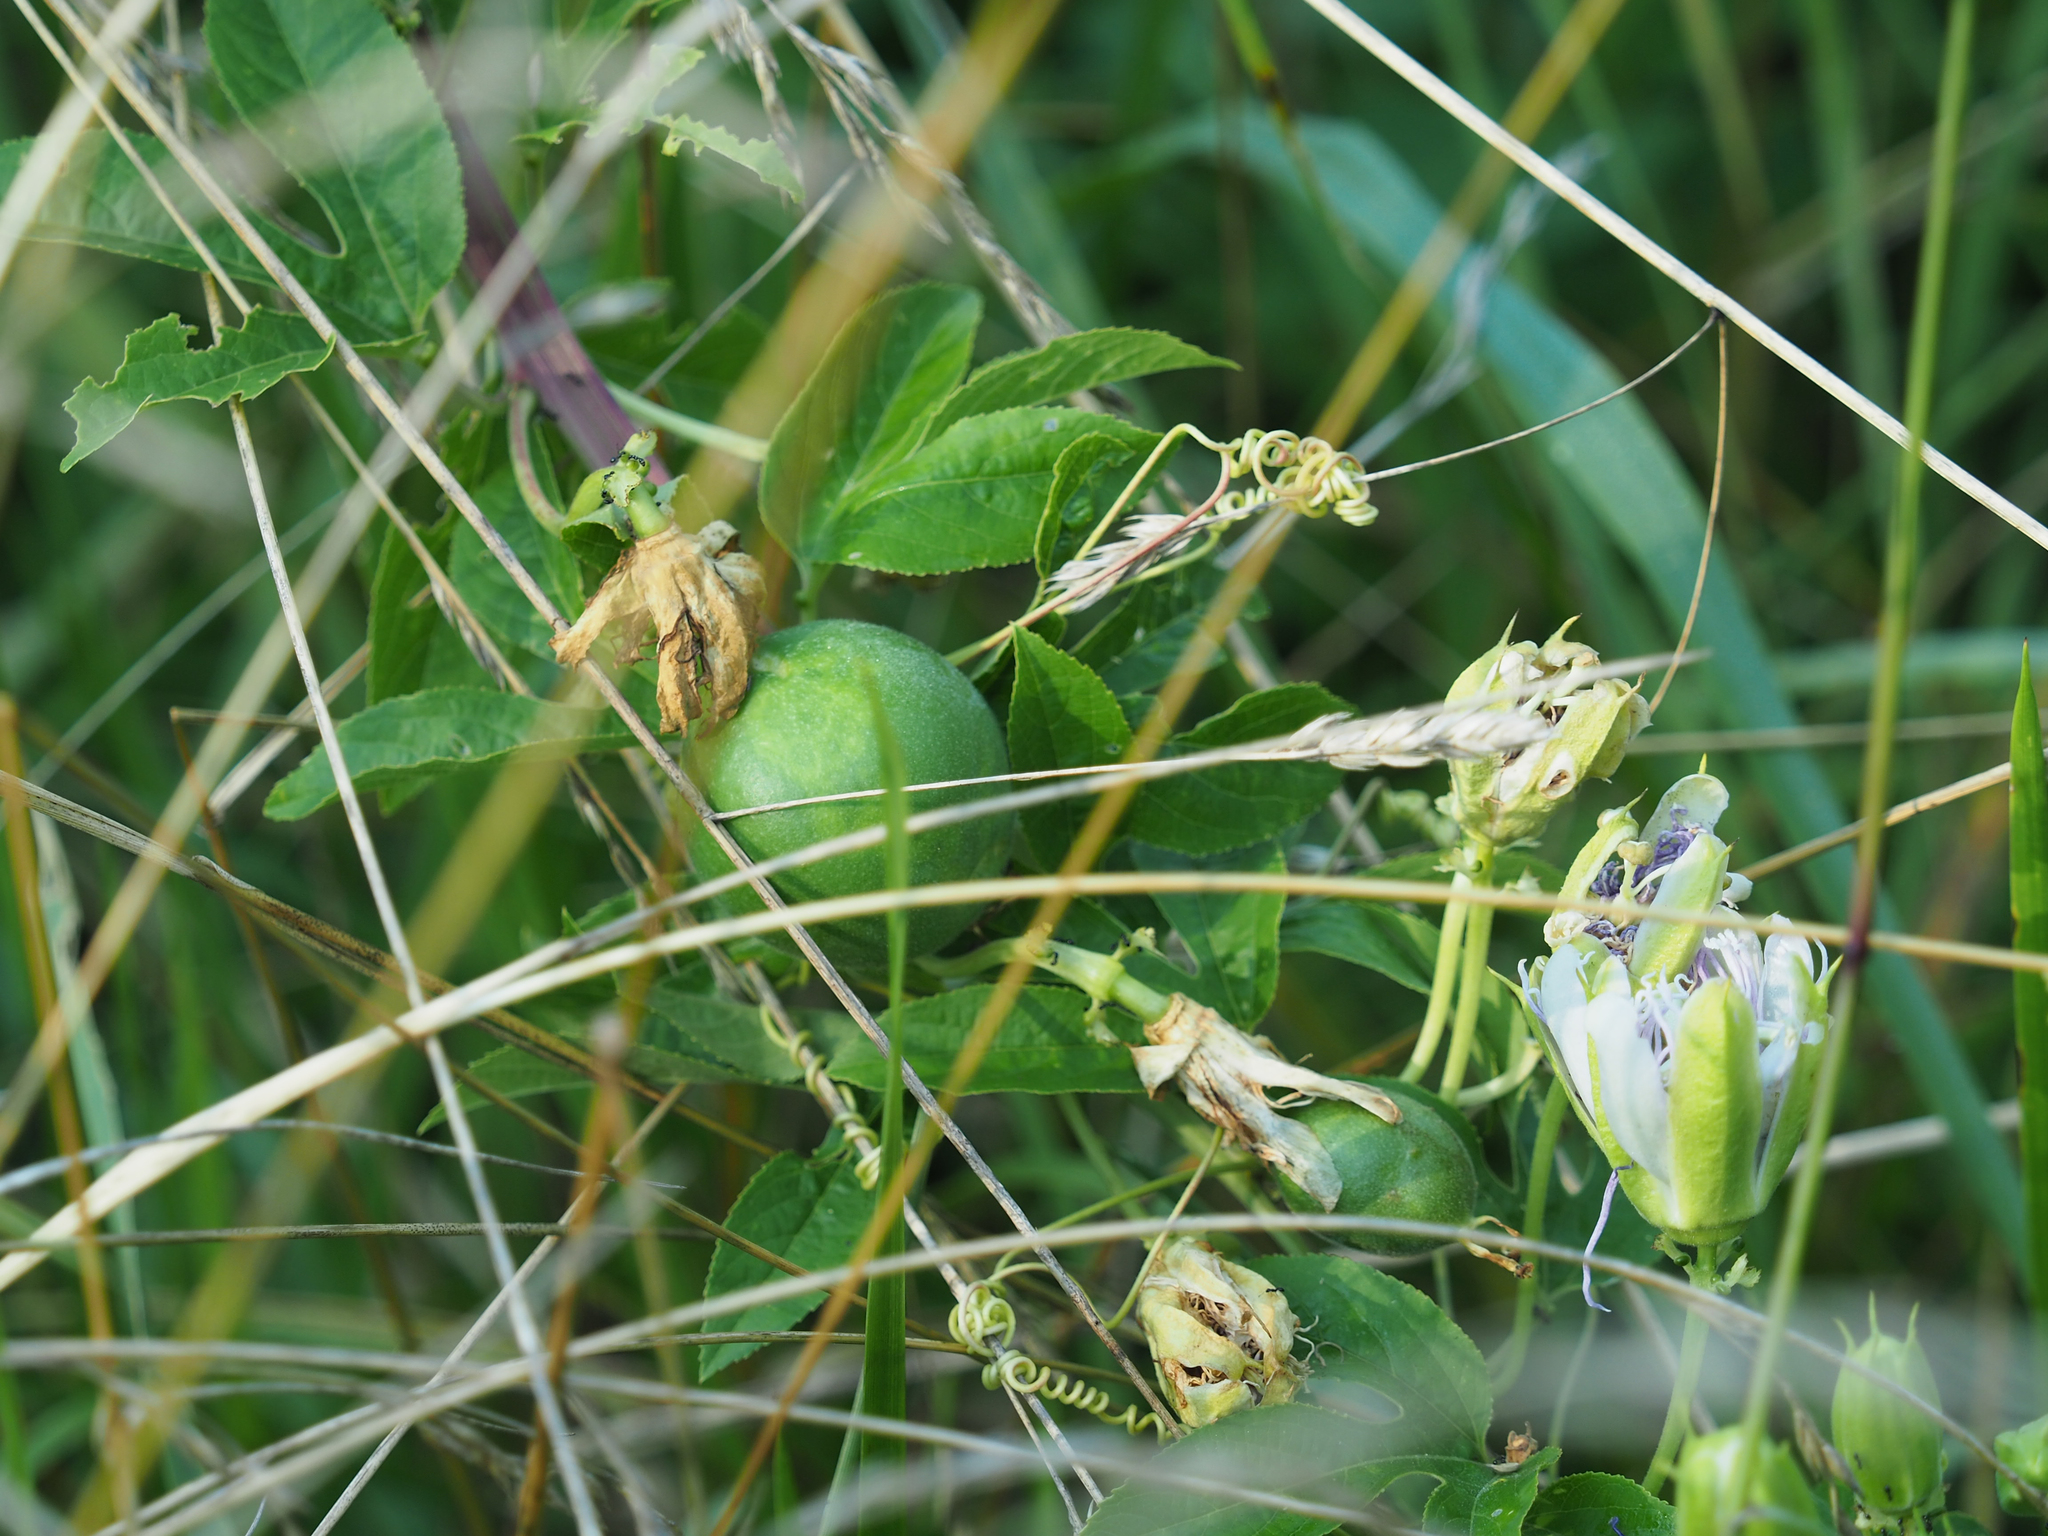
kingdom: Plantae
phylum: Tracheophyta
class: Magnoliopsida
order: Malpighiales
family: Passifloraceae
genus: Passiflora
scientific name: Passiflora incarnata
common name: Apricot-vine
